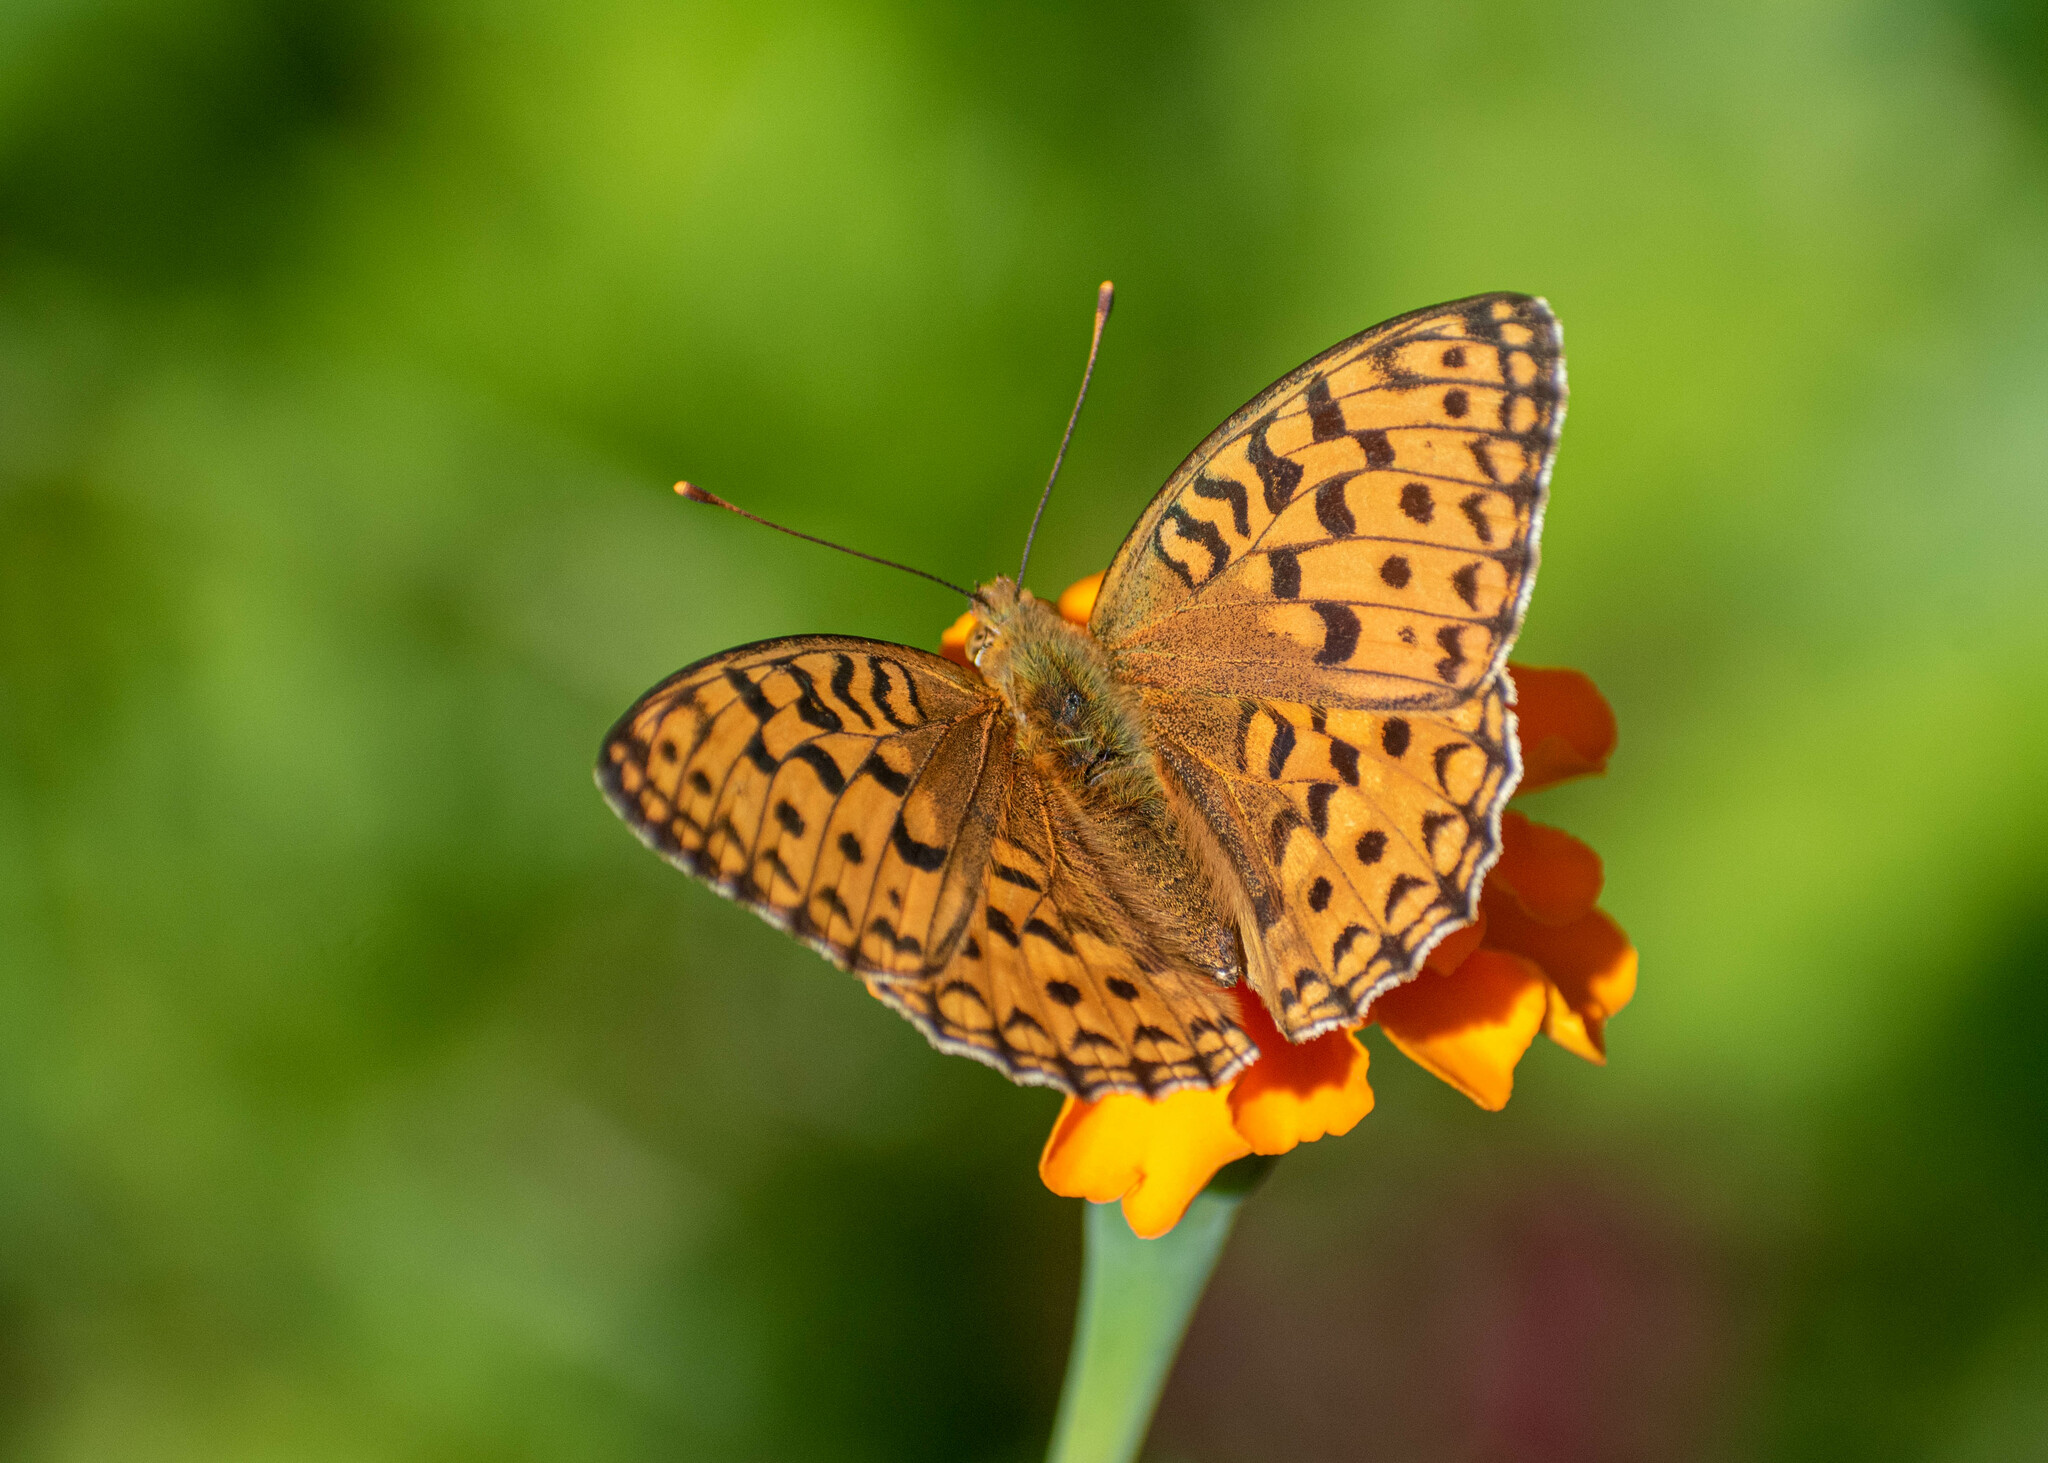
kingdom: Animalia
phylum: Arthropoda
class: Insecta
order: Lepidoptera
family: Nymphalidae
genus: Fabriciana
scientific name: Fabriciana adippe
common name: High brown fritillary
